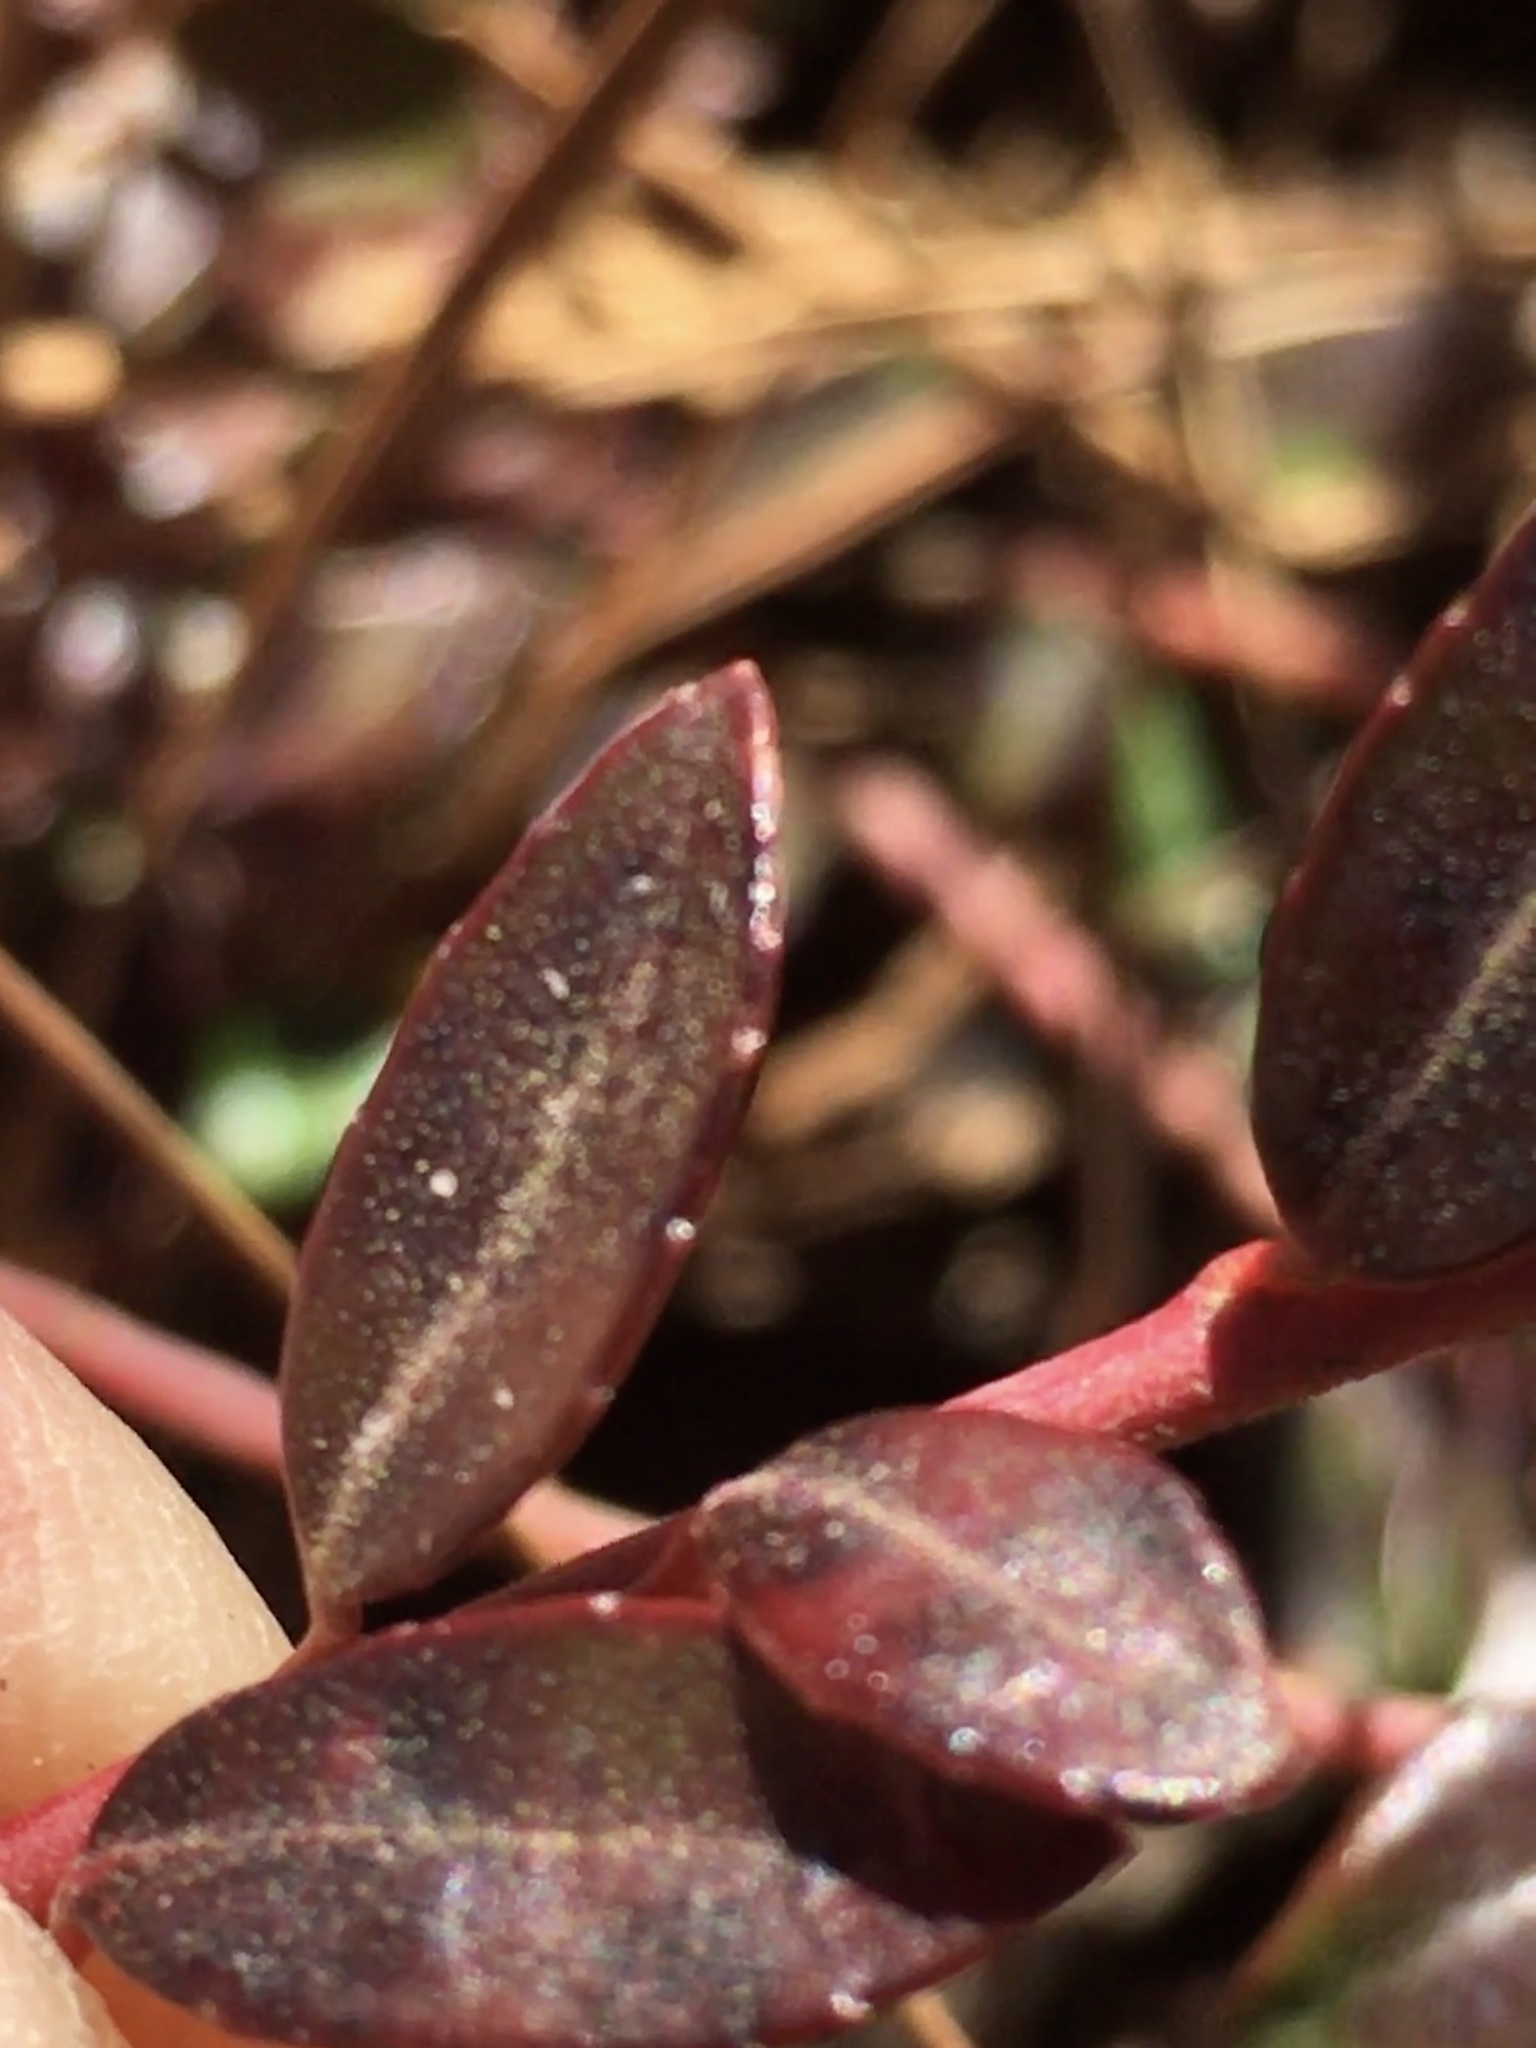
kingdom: Plantae
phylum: Tracheophyta
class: Magnoliopsida
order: Ericales
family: Ericaceae
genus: Vaccinium
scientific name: Vaccinium crassifolium
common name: Creeping blueberry
